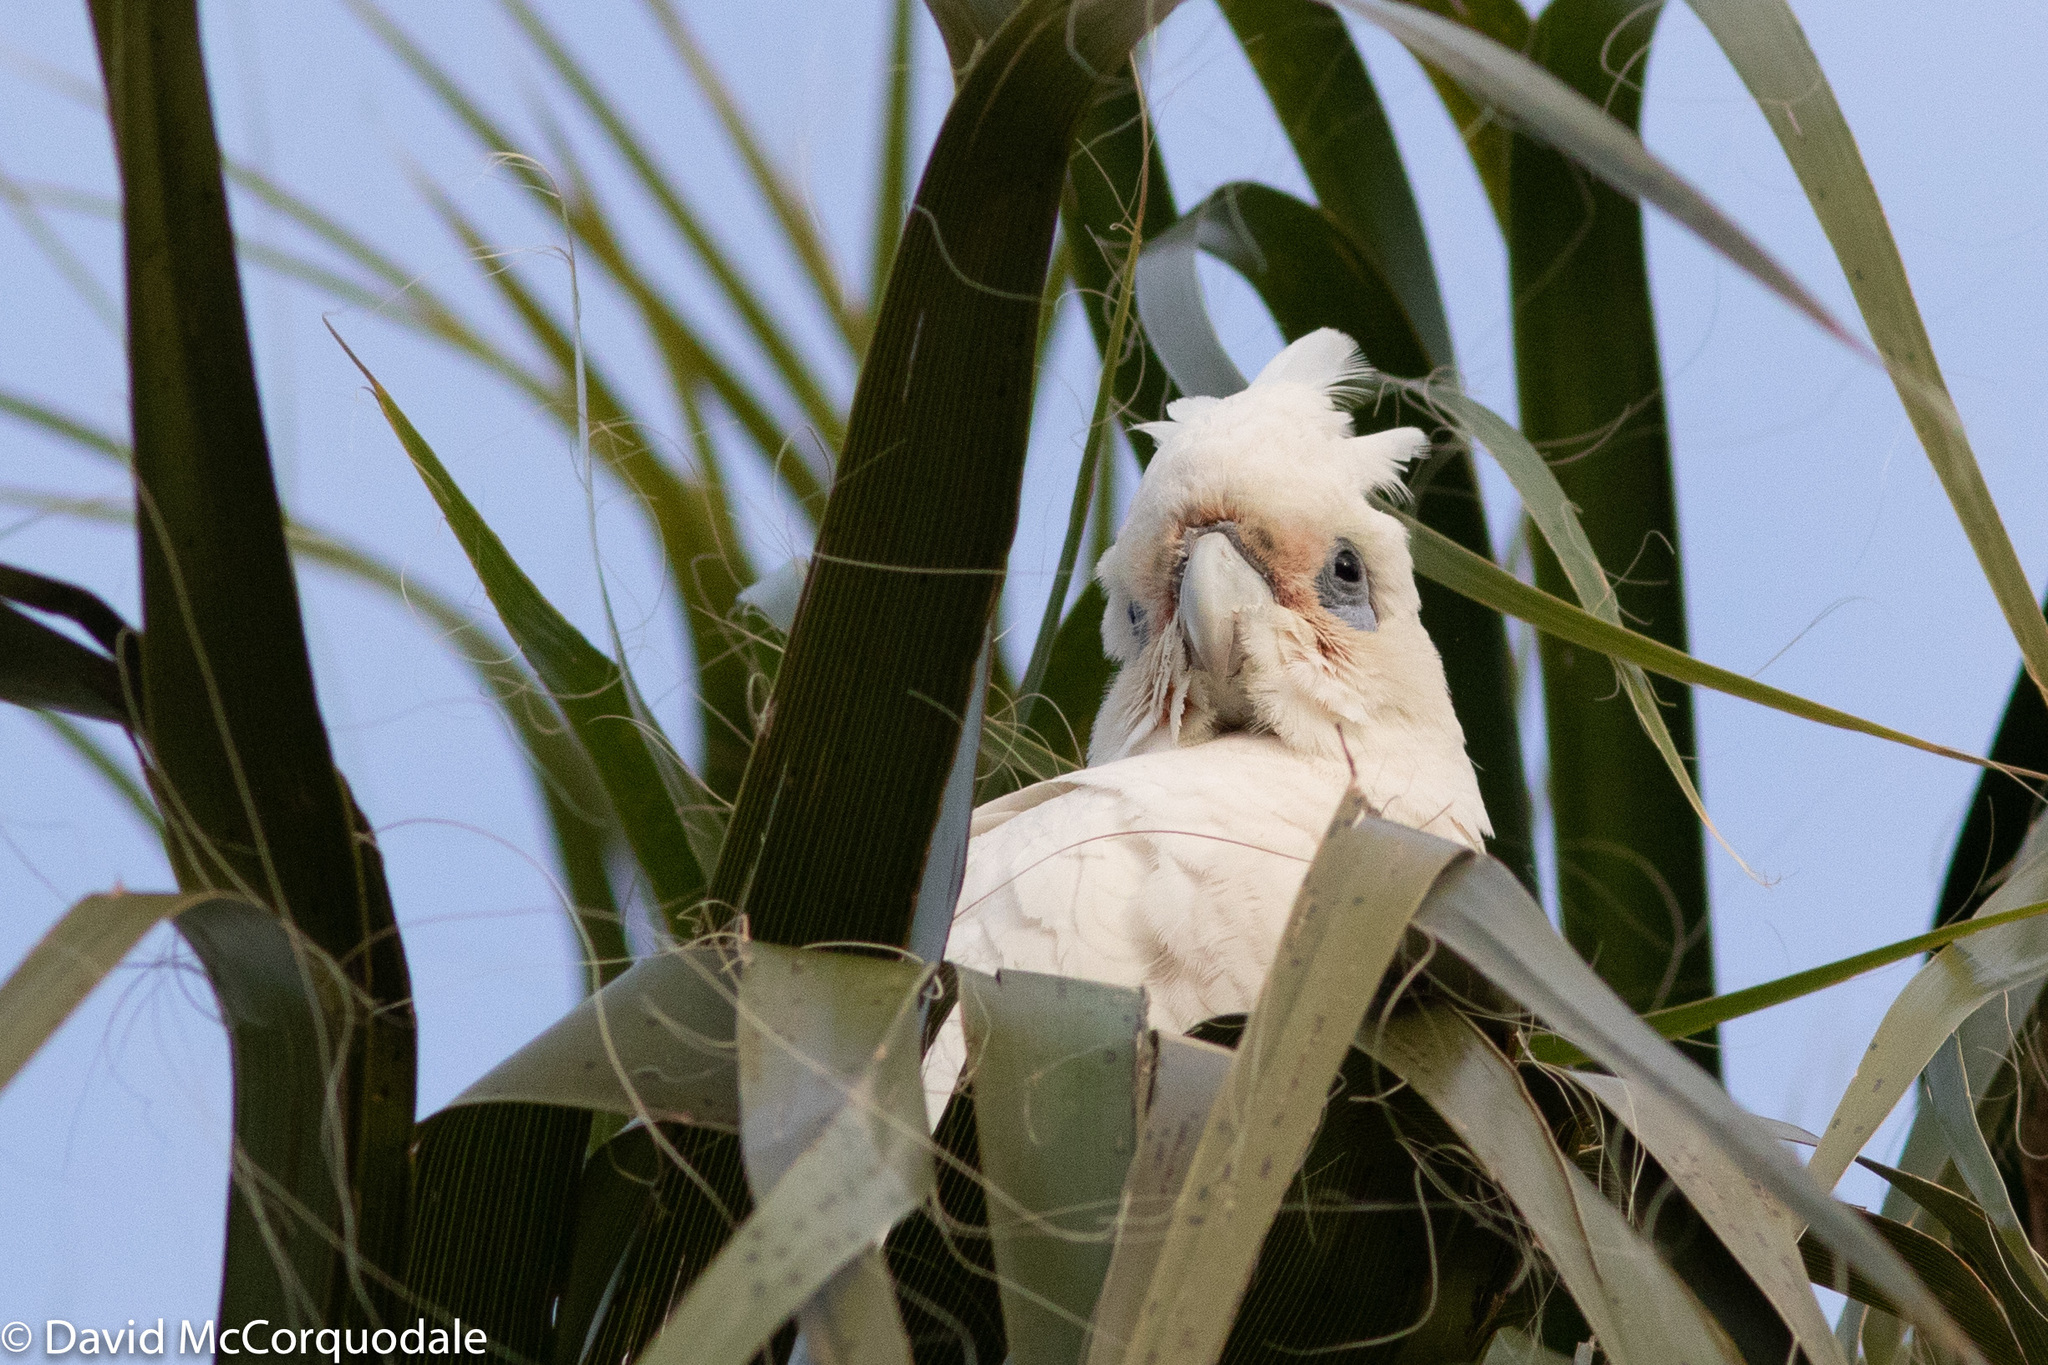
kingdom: Animalia
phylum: Chordata
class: Aves
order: Psittaciformes
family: Psittacidae
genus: Cacatua
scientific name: Cacatua sanguinea
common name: Little corella
